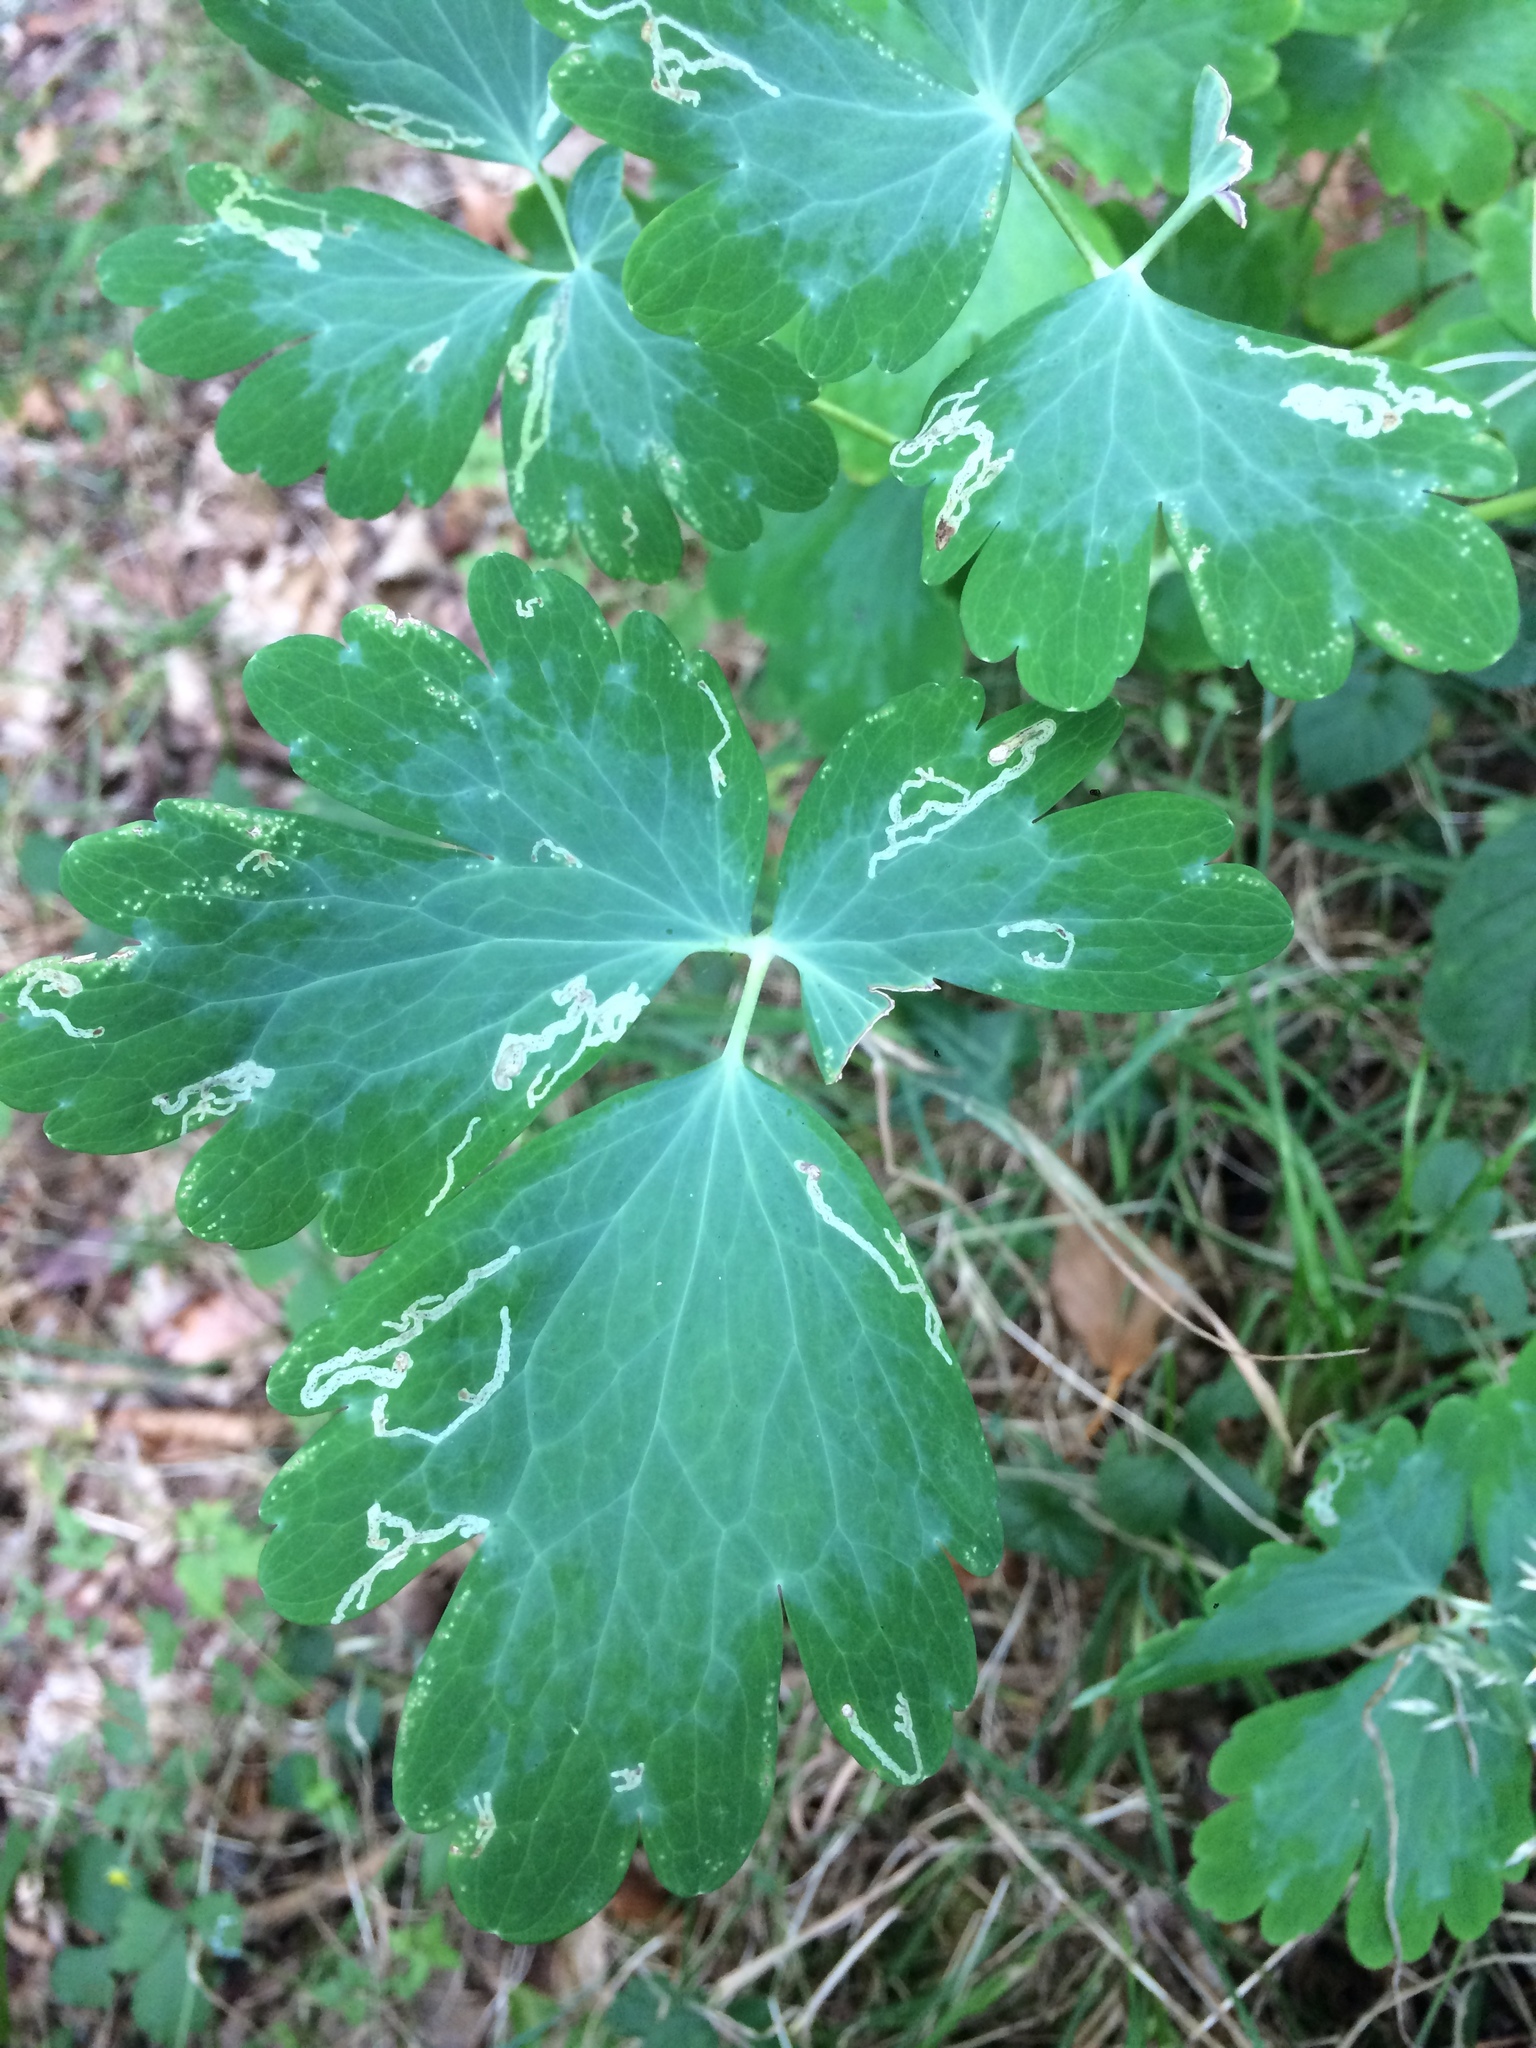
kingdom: Animalia
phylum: Arthropoda
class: Insecta
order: Diptera
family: Agromyzidae
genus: Phytomyza
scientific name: Phytomyza ancholiae
